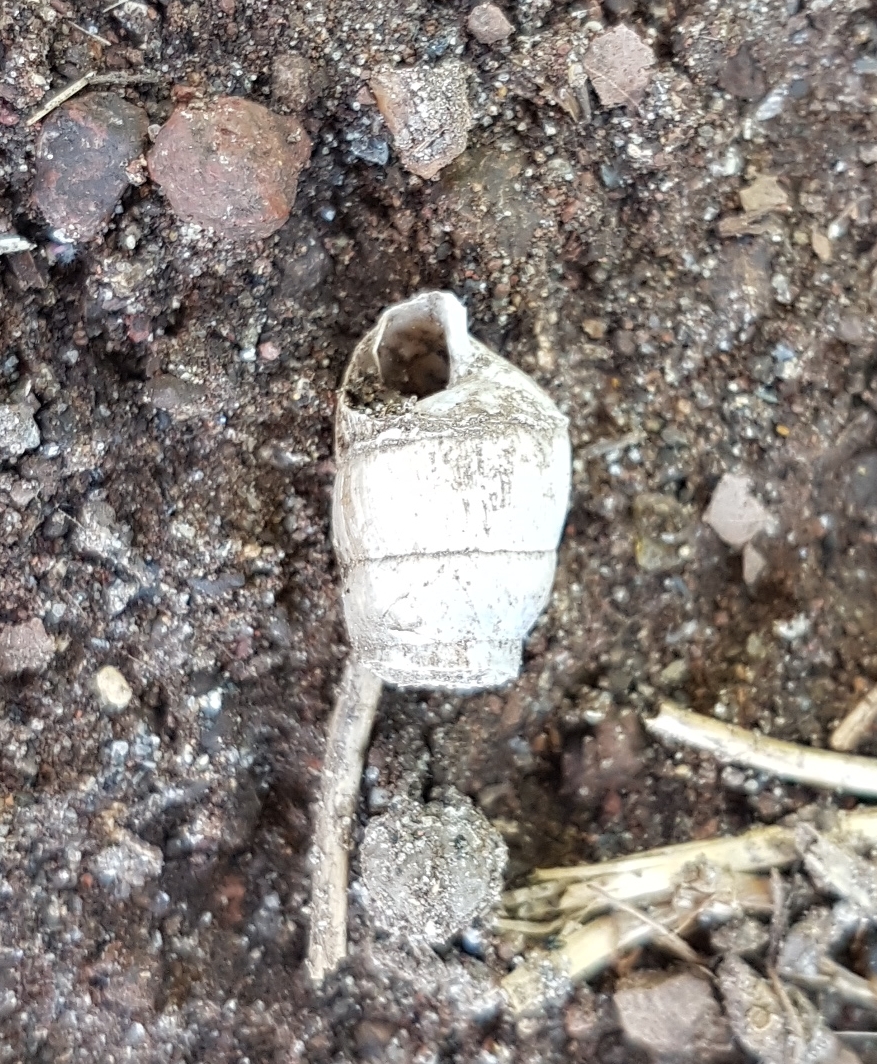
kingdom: Animalia
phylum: Mollusca
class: Gastropoda
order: Stylommatophora
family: Achatinidae
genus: Rumina
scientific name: Rumina decollata
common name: Decollate snail
